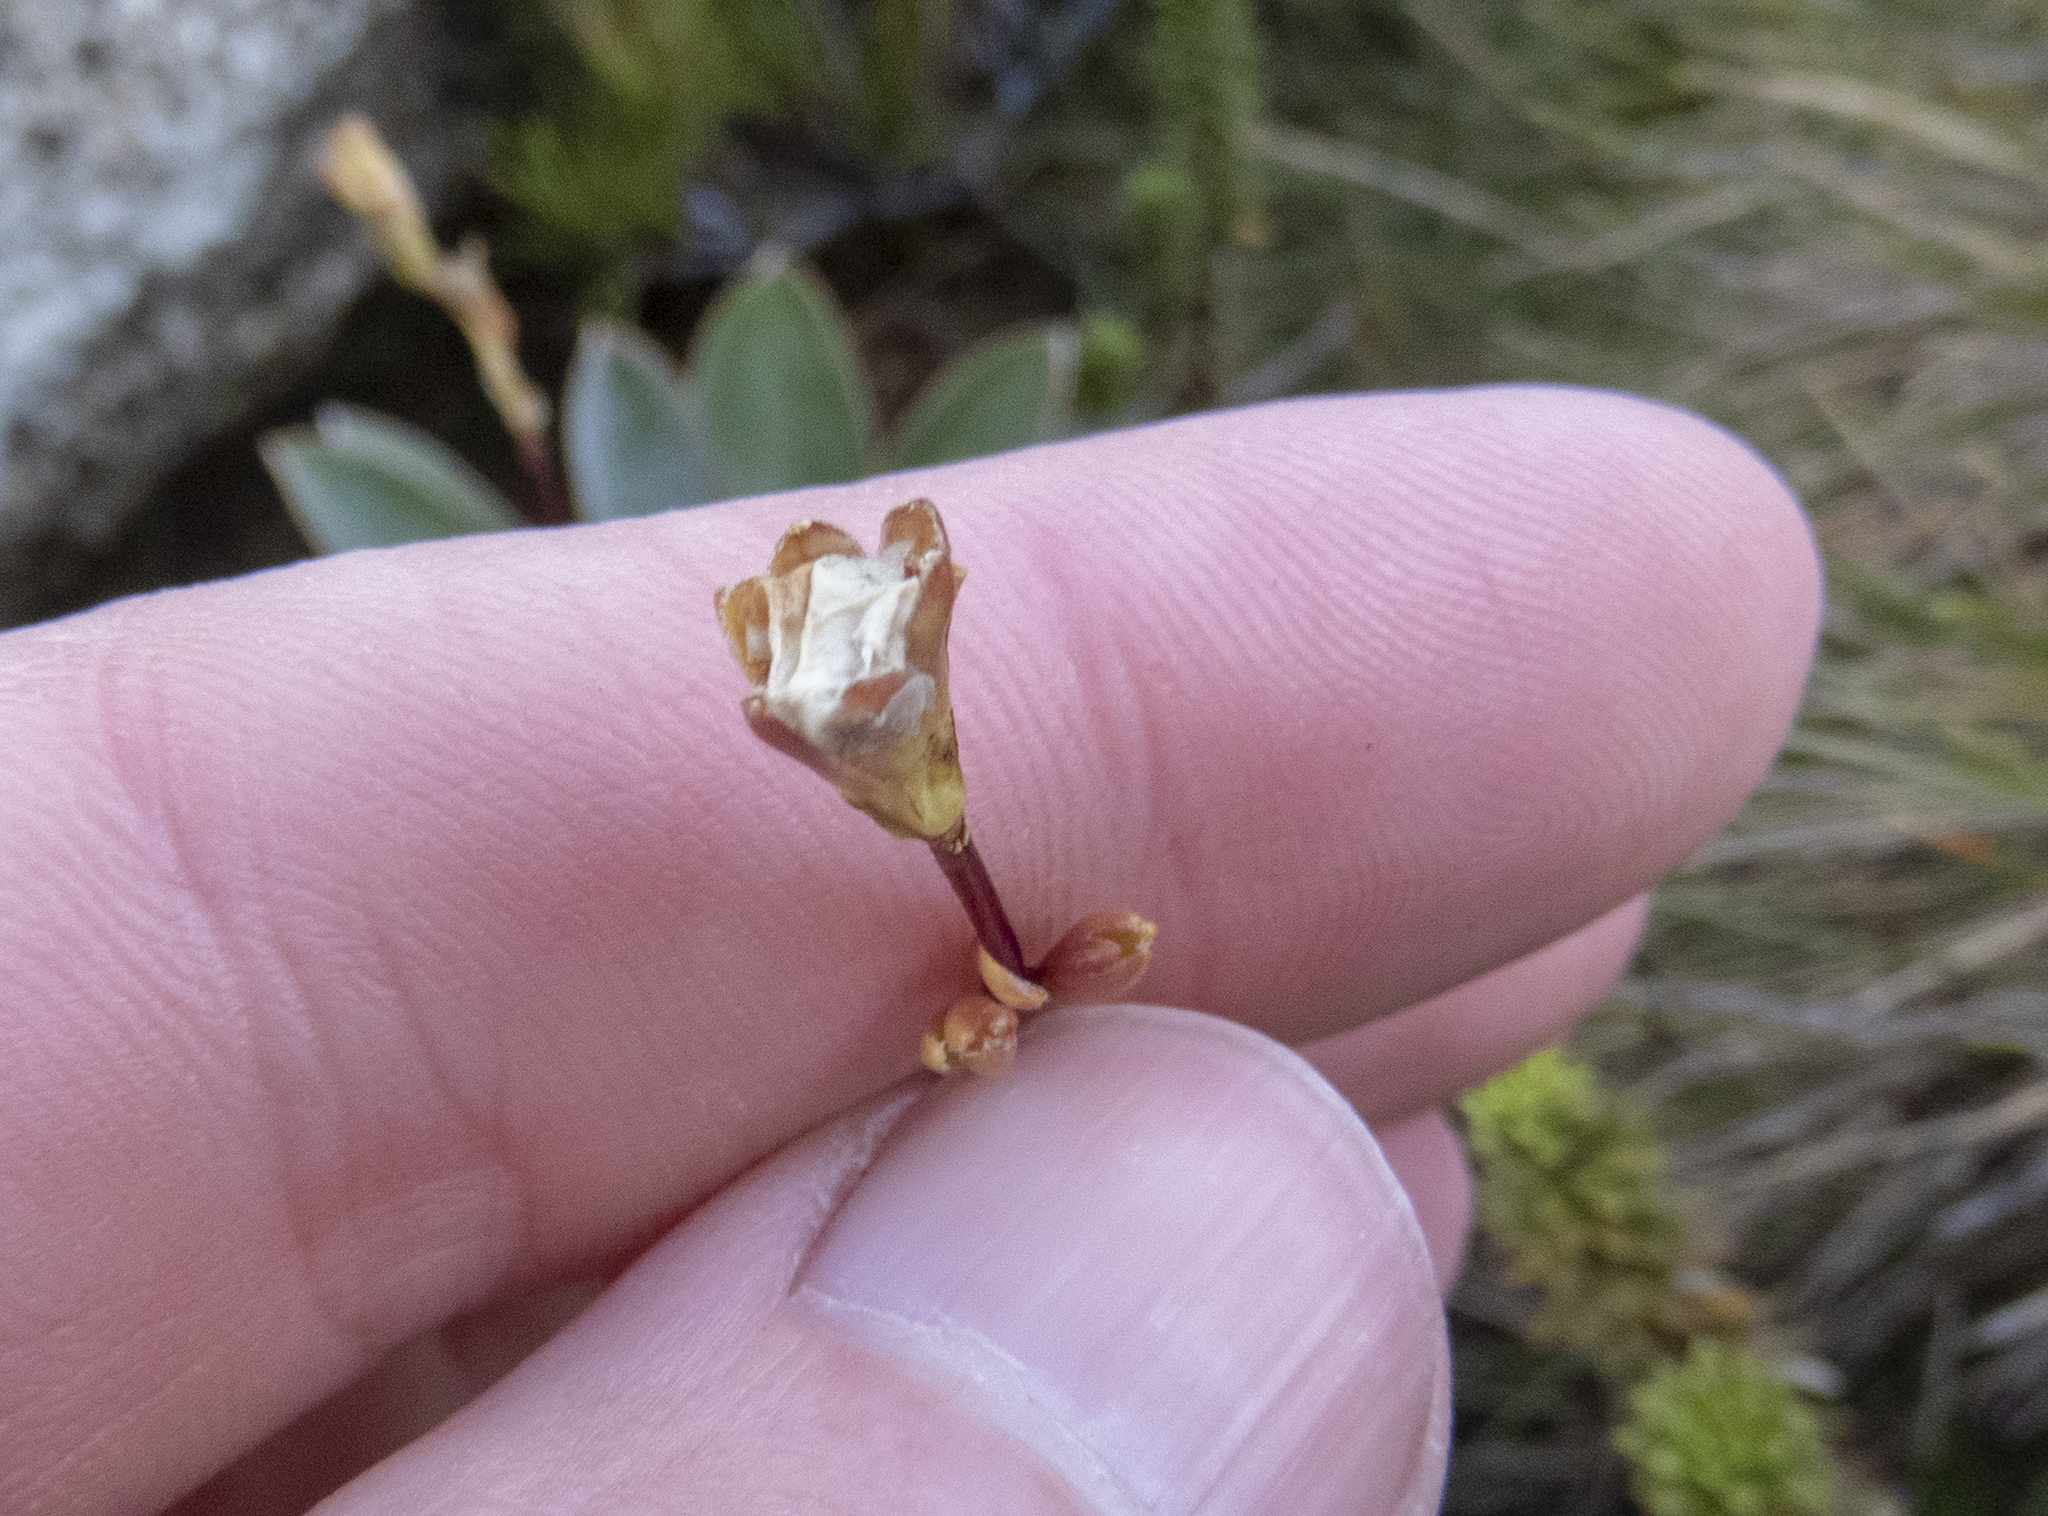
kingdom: Plantae
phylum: Tracheophyta
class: Magnoliopsida
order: Asterales
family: Stylidiaceae
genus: Forstera
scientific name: Forstera mackayi
